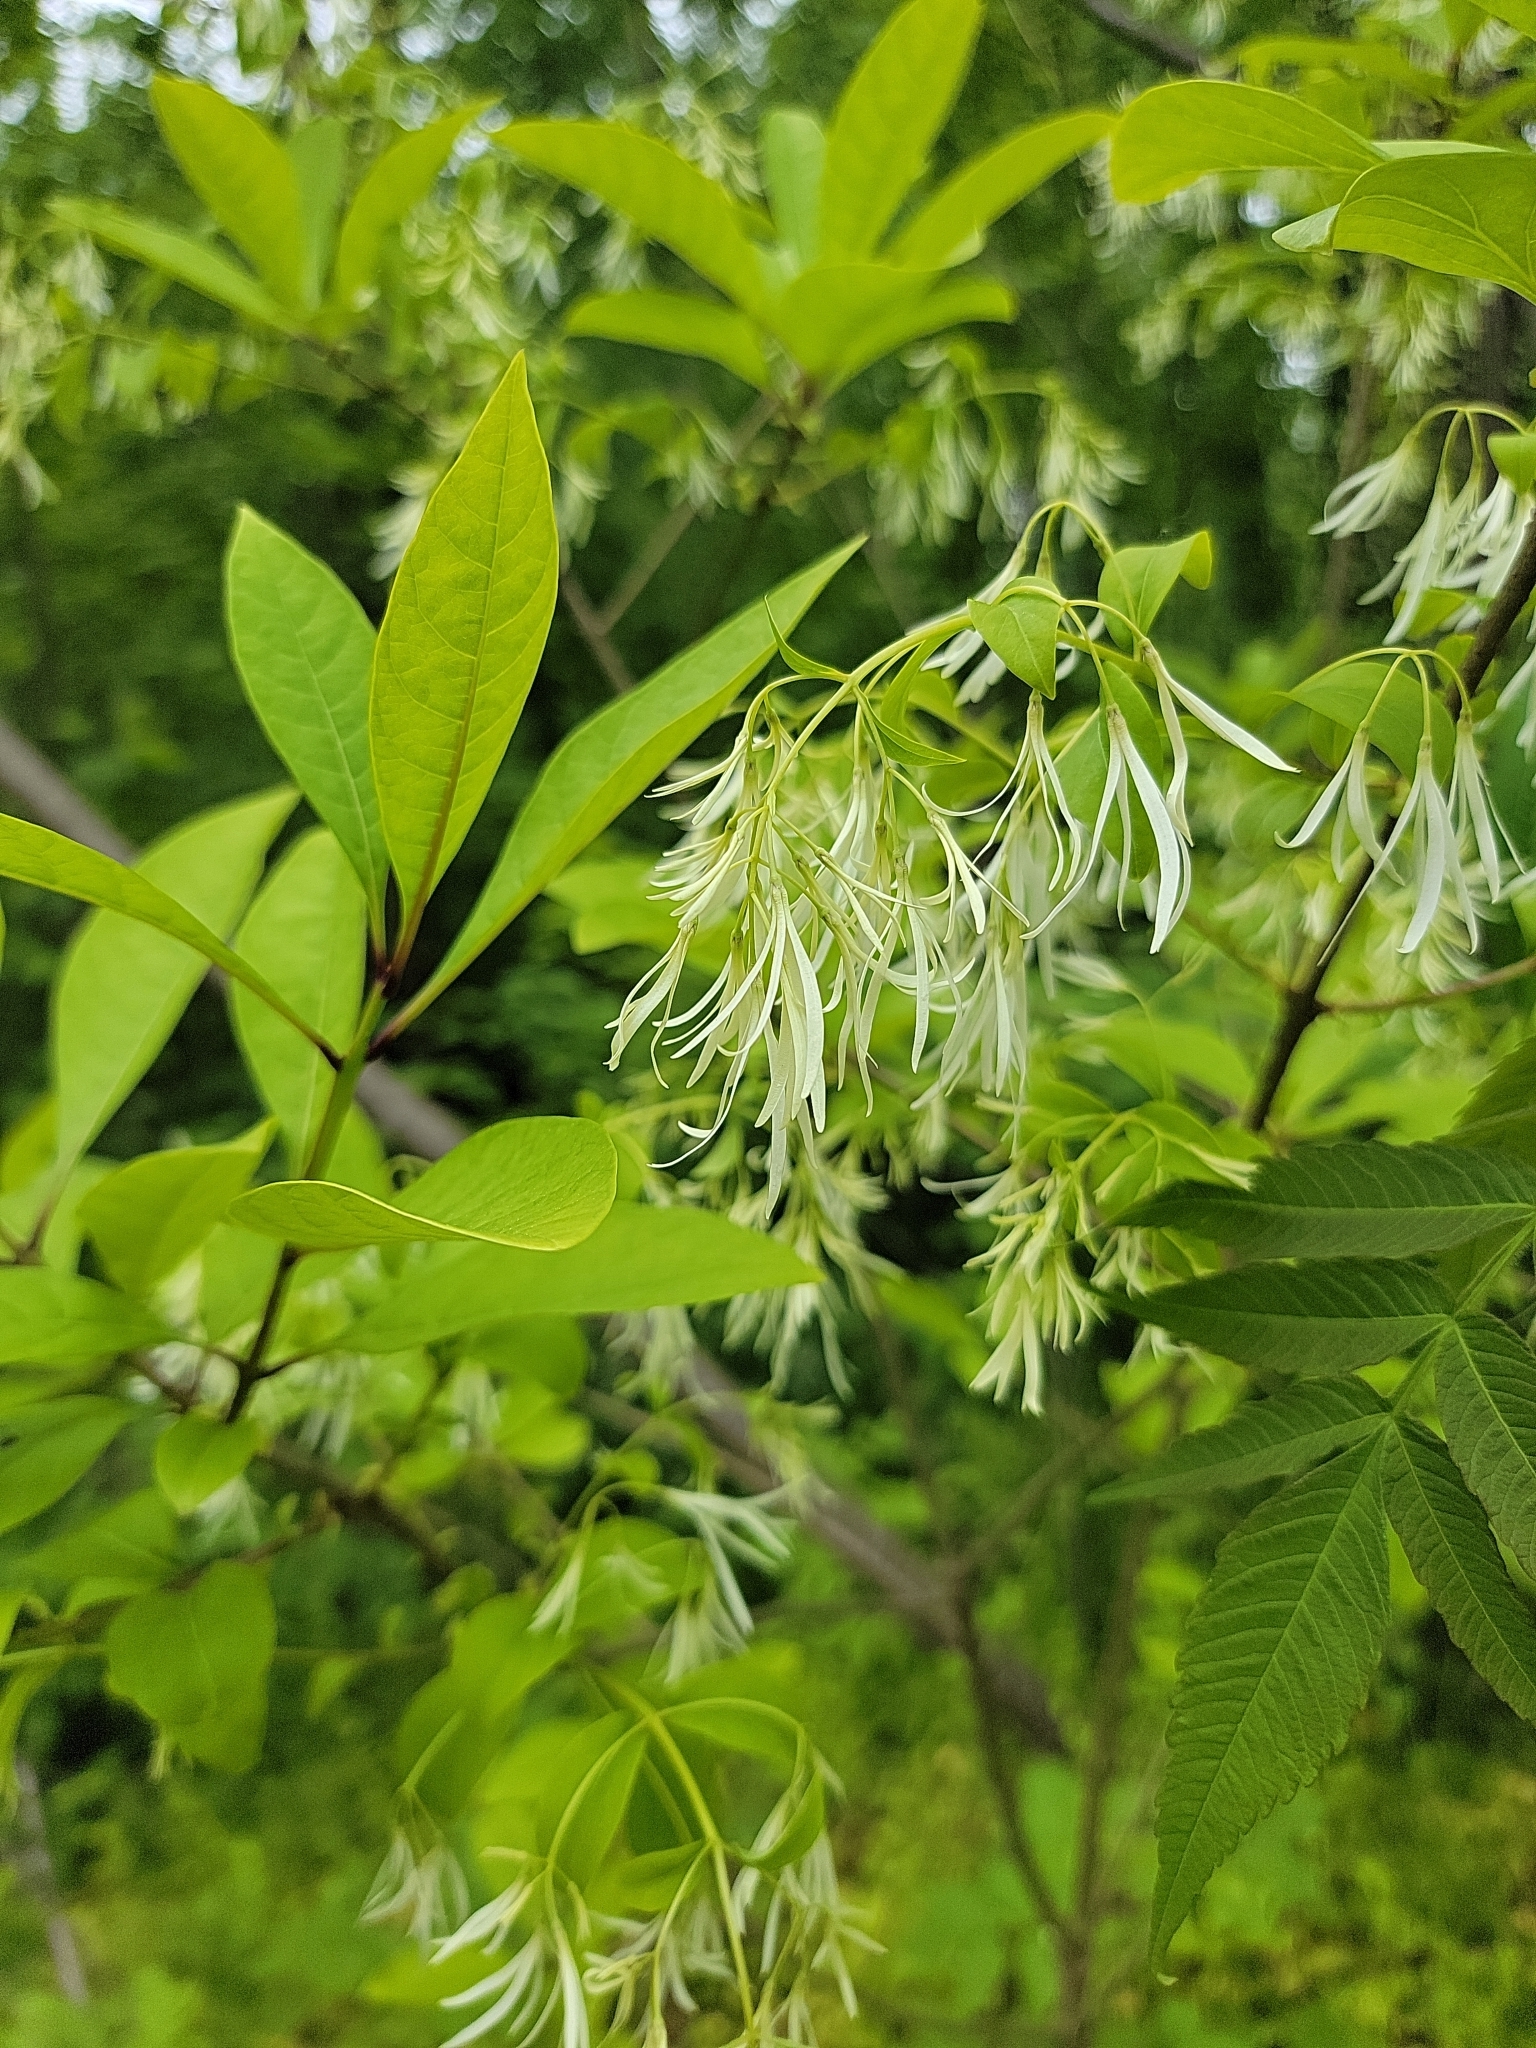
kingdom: Plantae
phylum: Tracheophyta
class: Magnoliopsida
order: Lamiales
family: Oleaceae
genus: Chionanthus
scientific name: Chionanthus virginicus
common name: American fringetree
